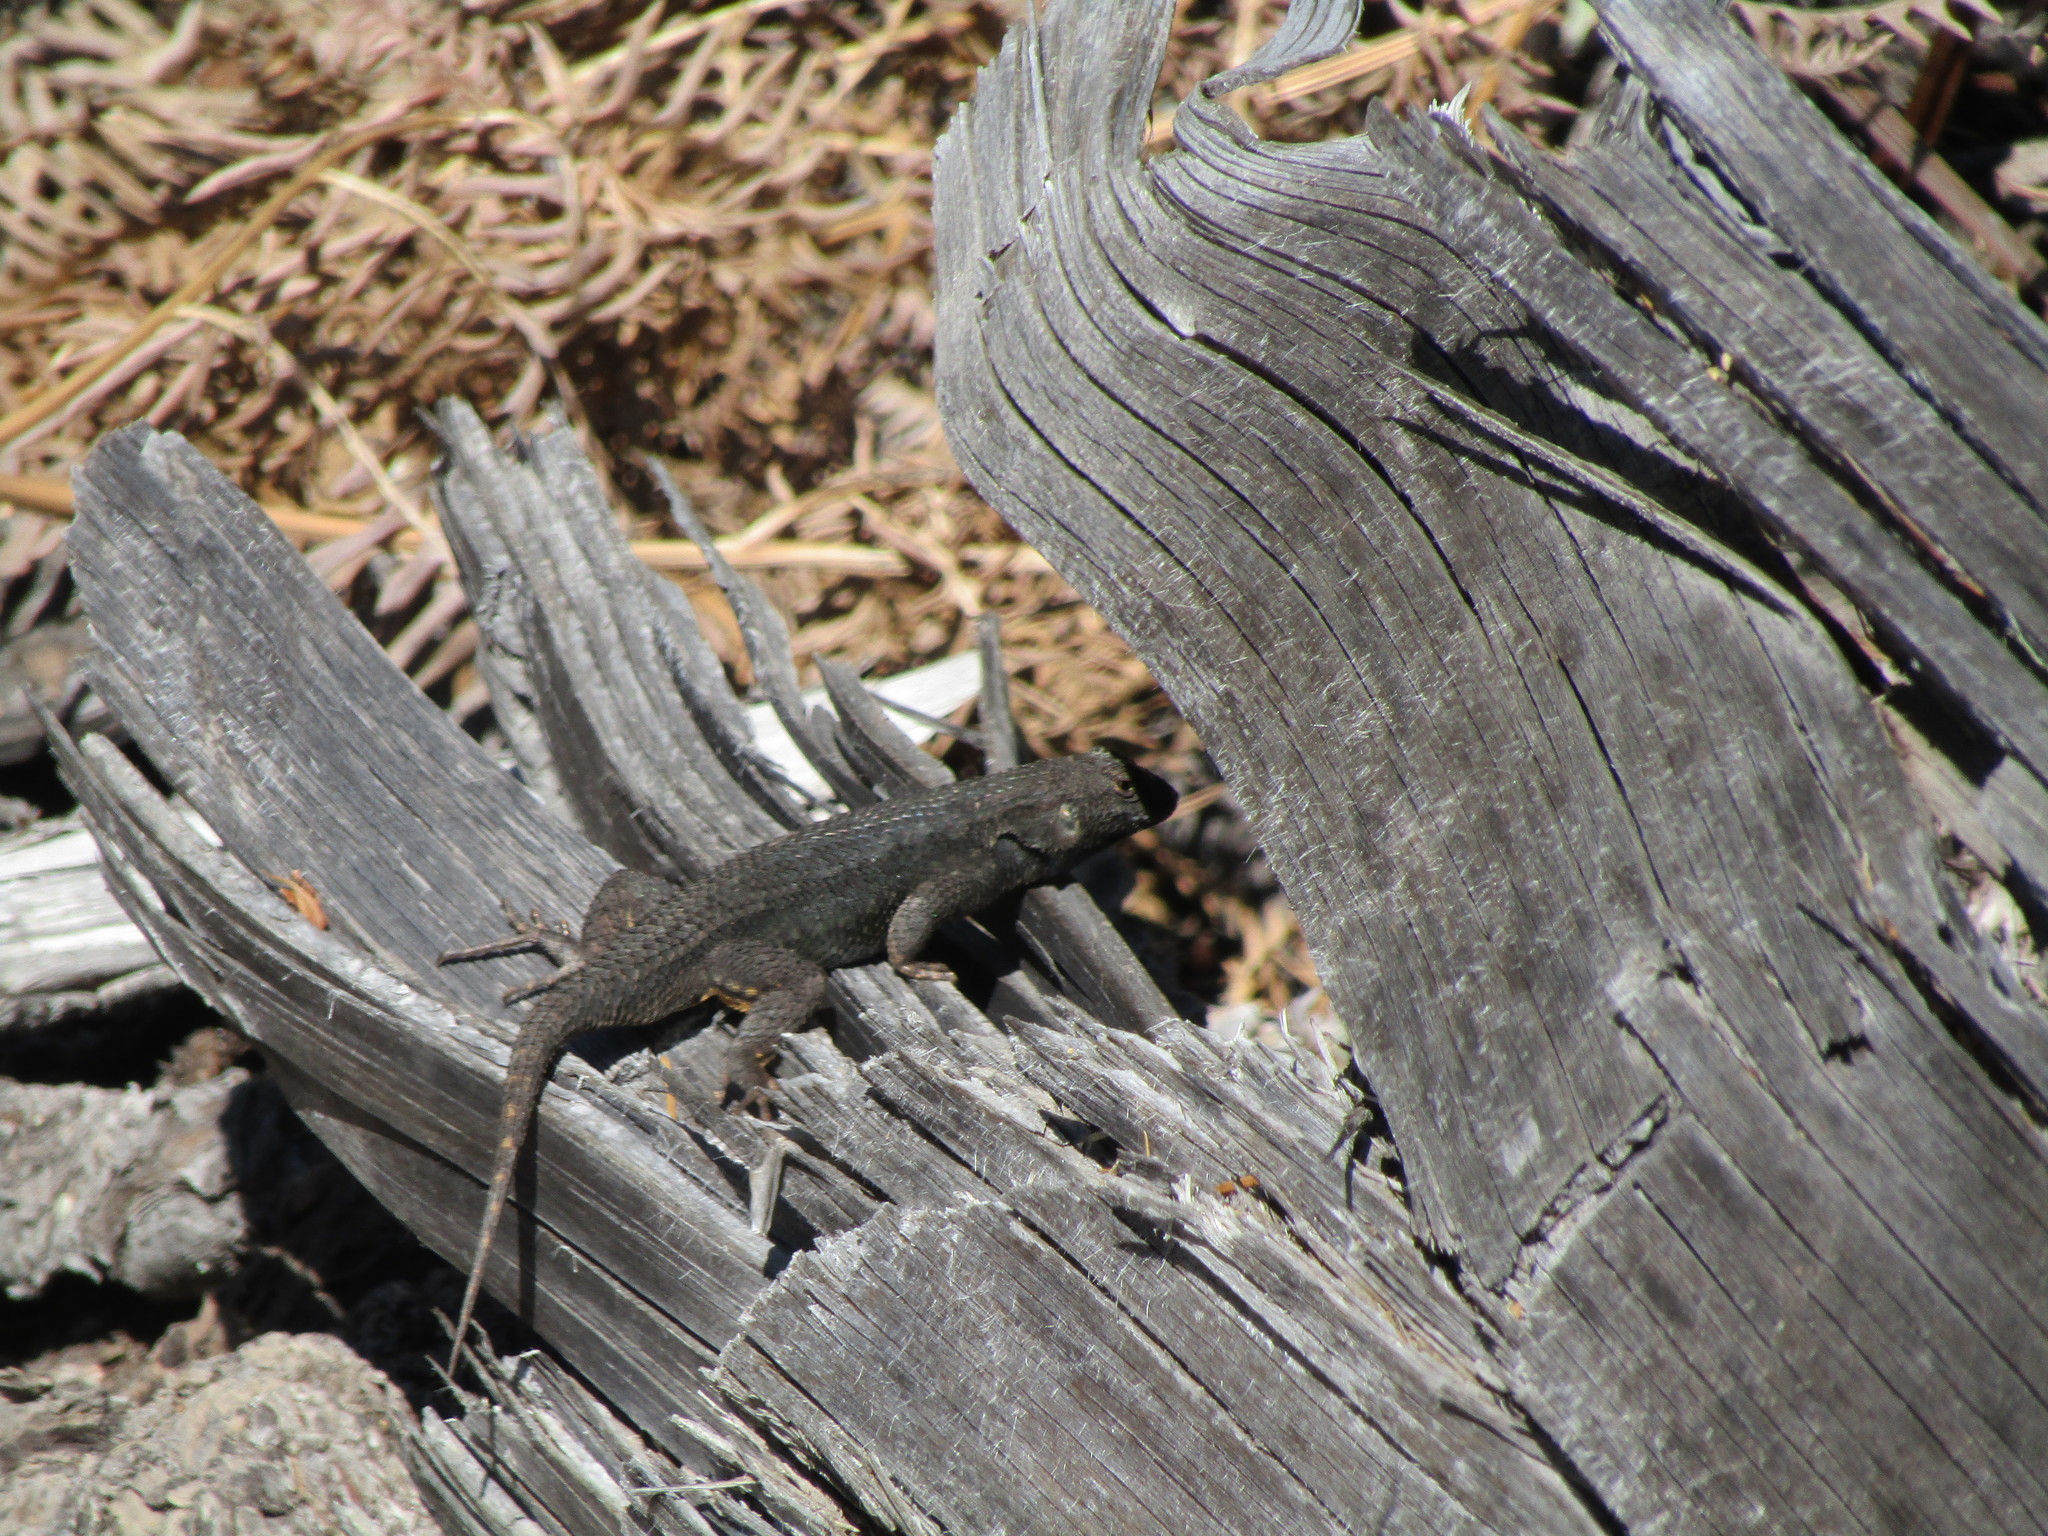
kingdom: Animalia
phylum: Chordata
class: Squamata
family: Phrynosomatidae
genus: Sceloporus
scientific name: Sceloporus occidentalis
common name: Western fence lizard
